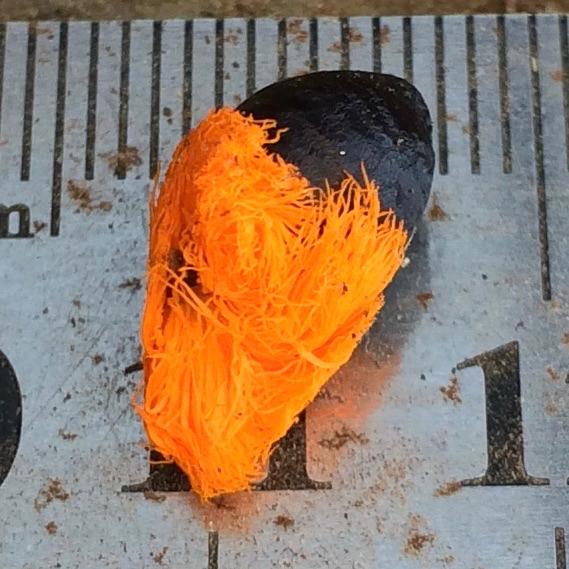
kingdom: Plantae
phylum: Tracheophyta
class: Liliopsida
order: Zingiberales
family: Strelitziaceae
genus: Strelitzia
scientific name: Strelitzia nicolai
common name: Bird-of-paradise tree
